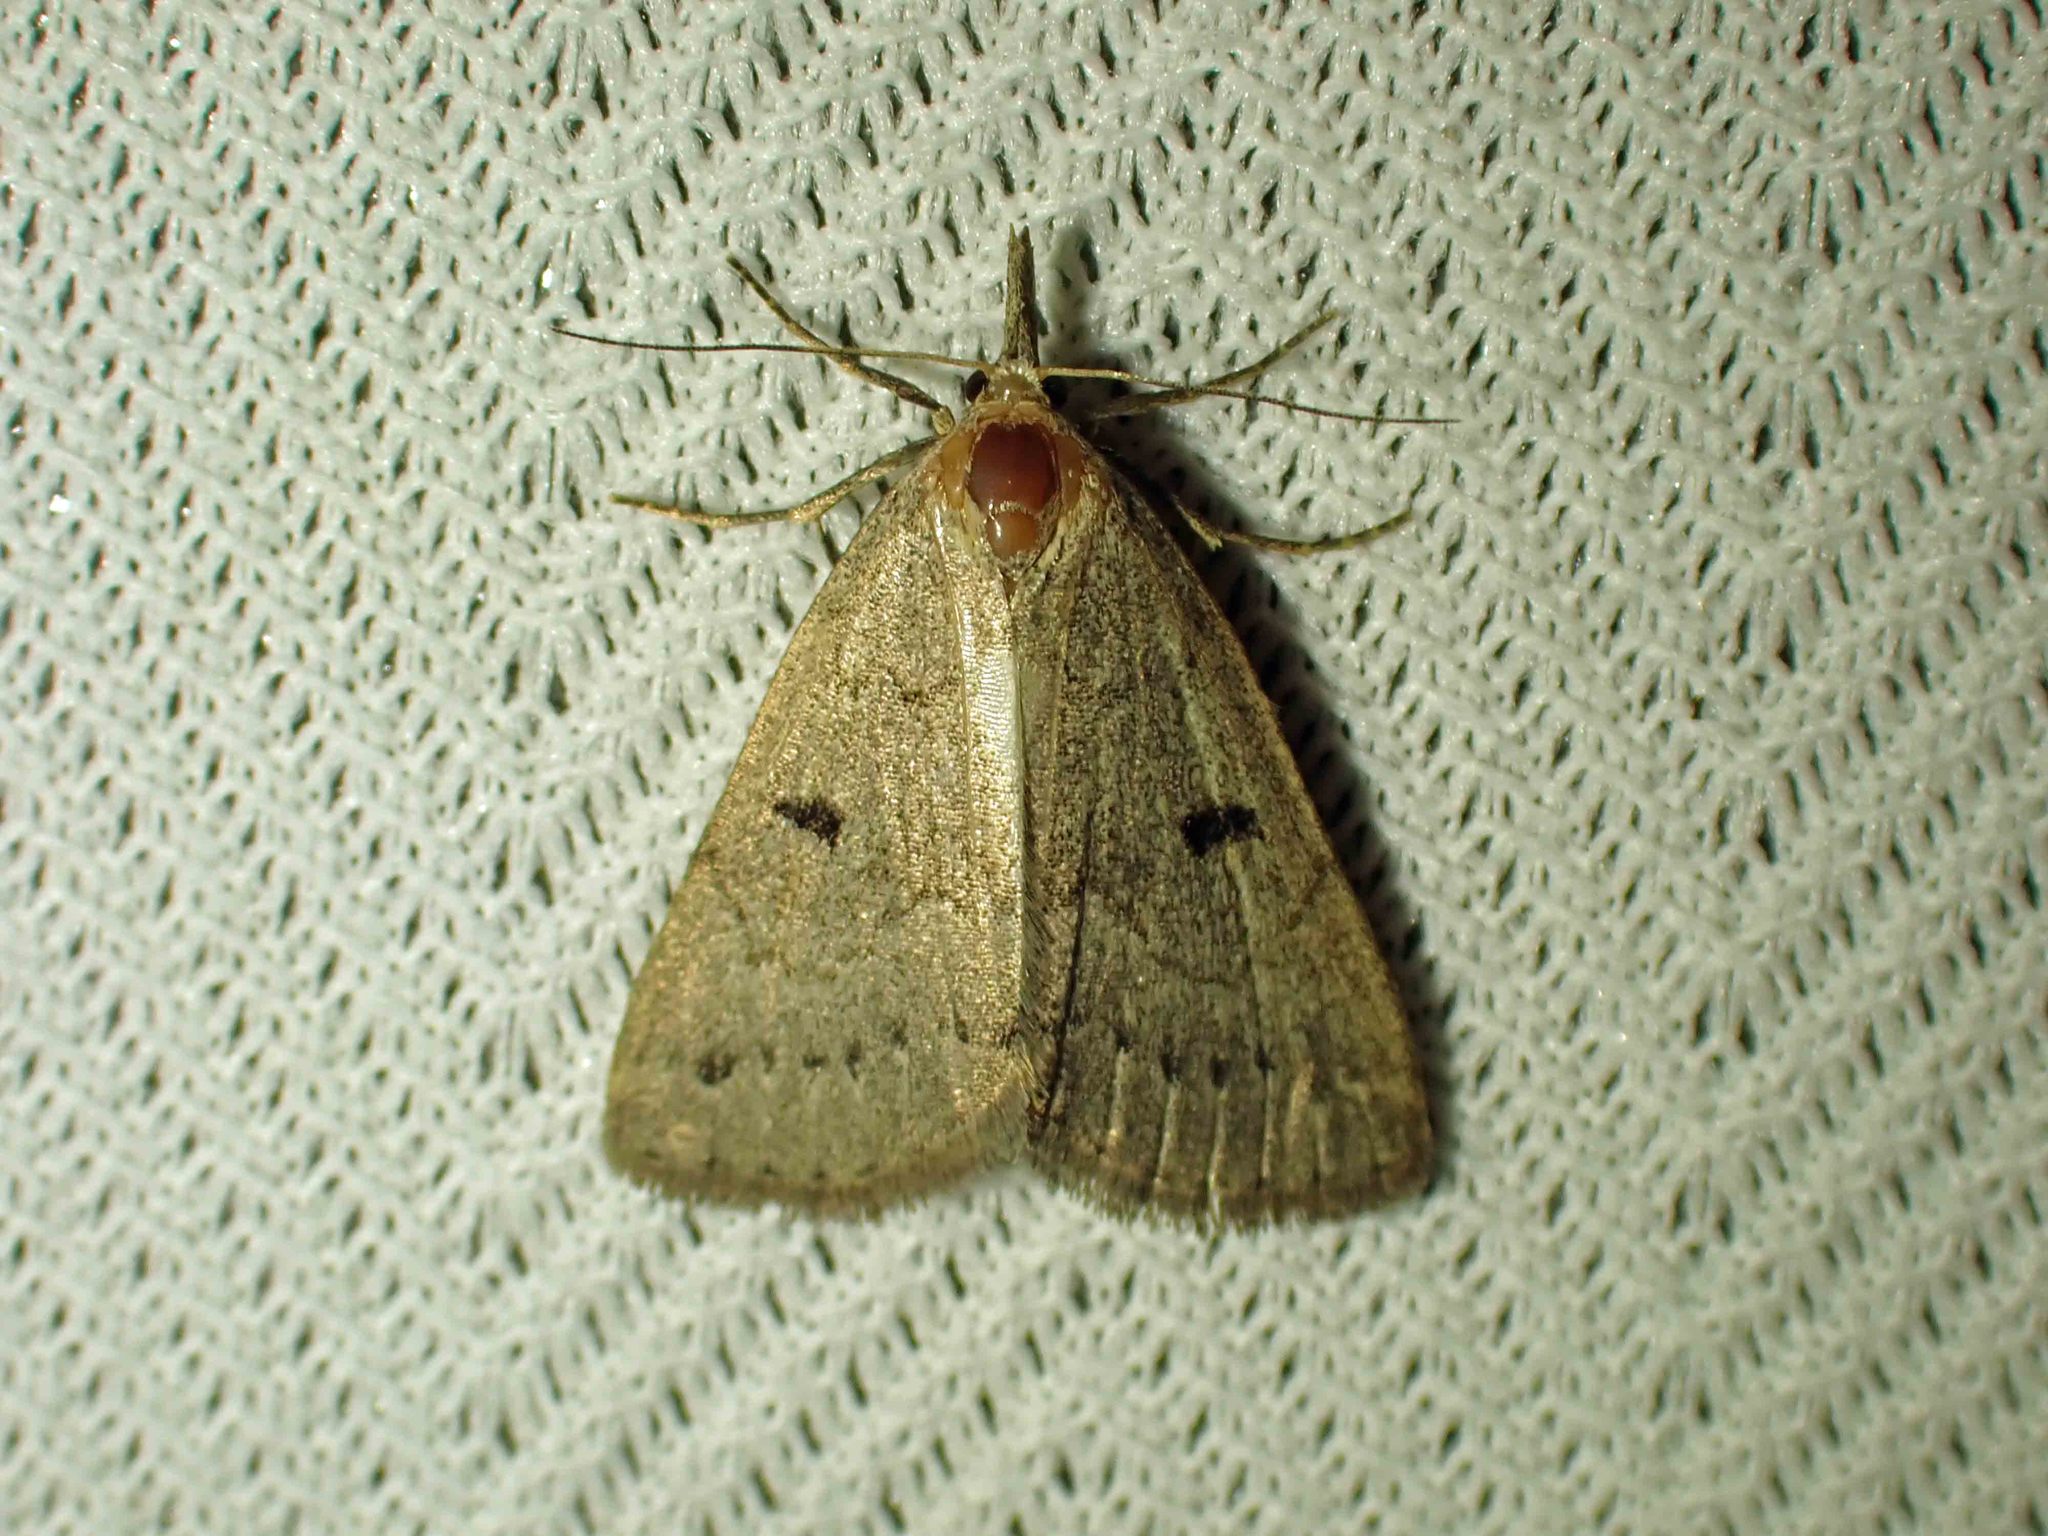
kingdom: Animalia
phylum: Arthropoda
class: Insecta
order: Lepidoptera
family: Erebidae
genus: Macrochilo
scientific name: Macrochilo morbidalis
